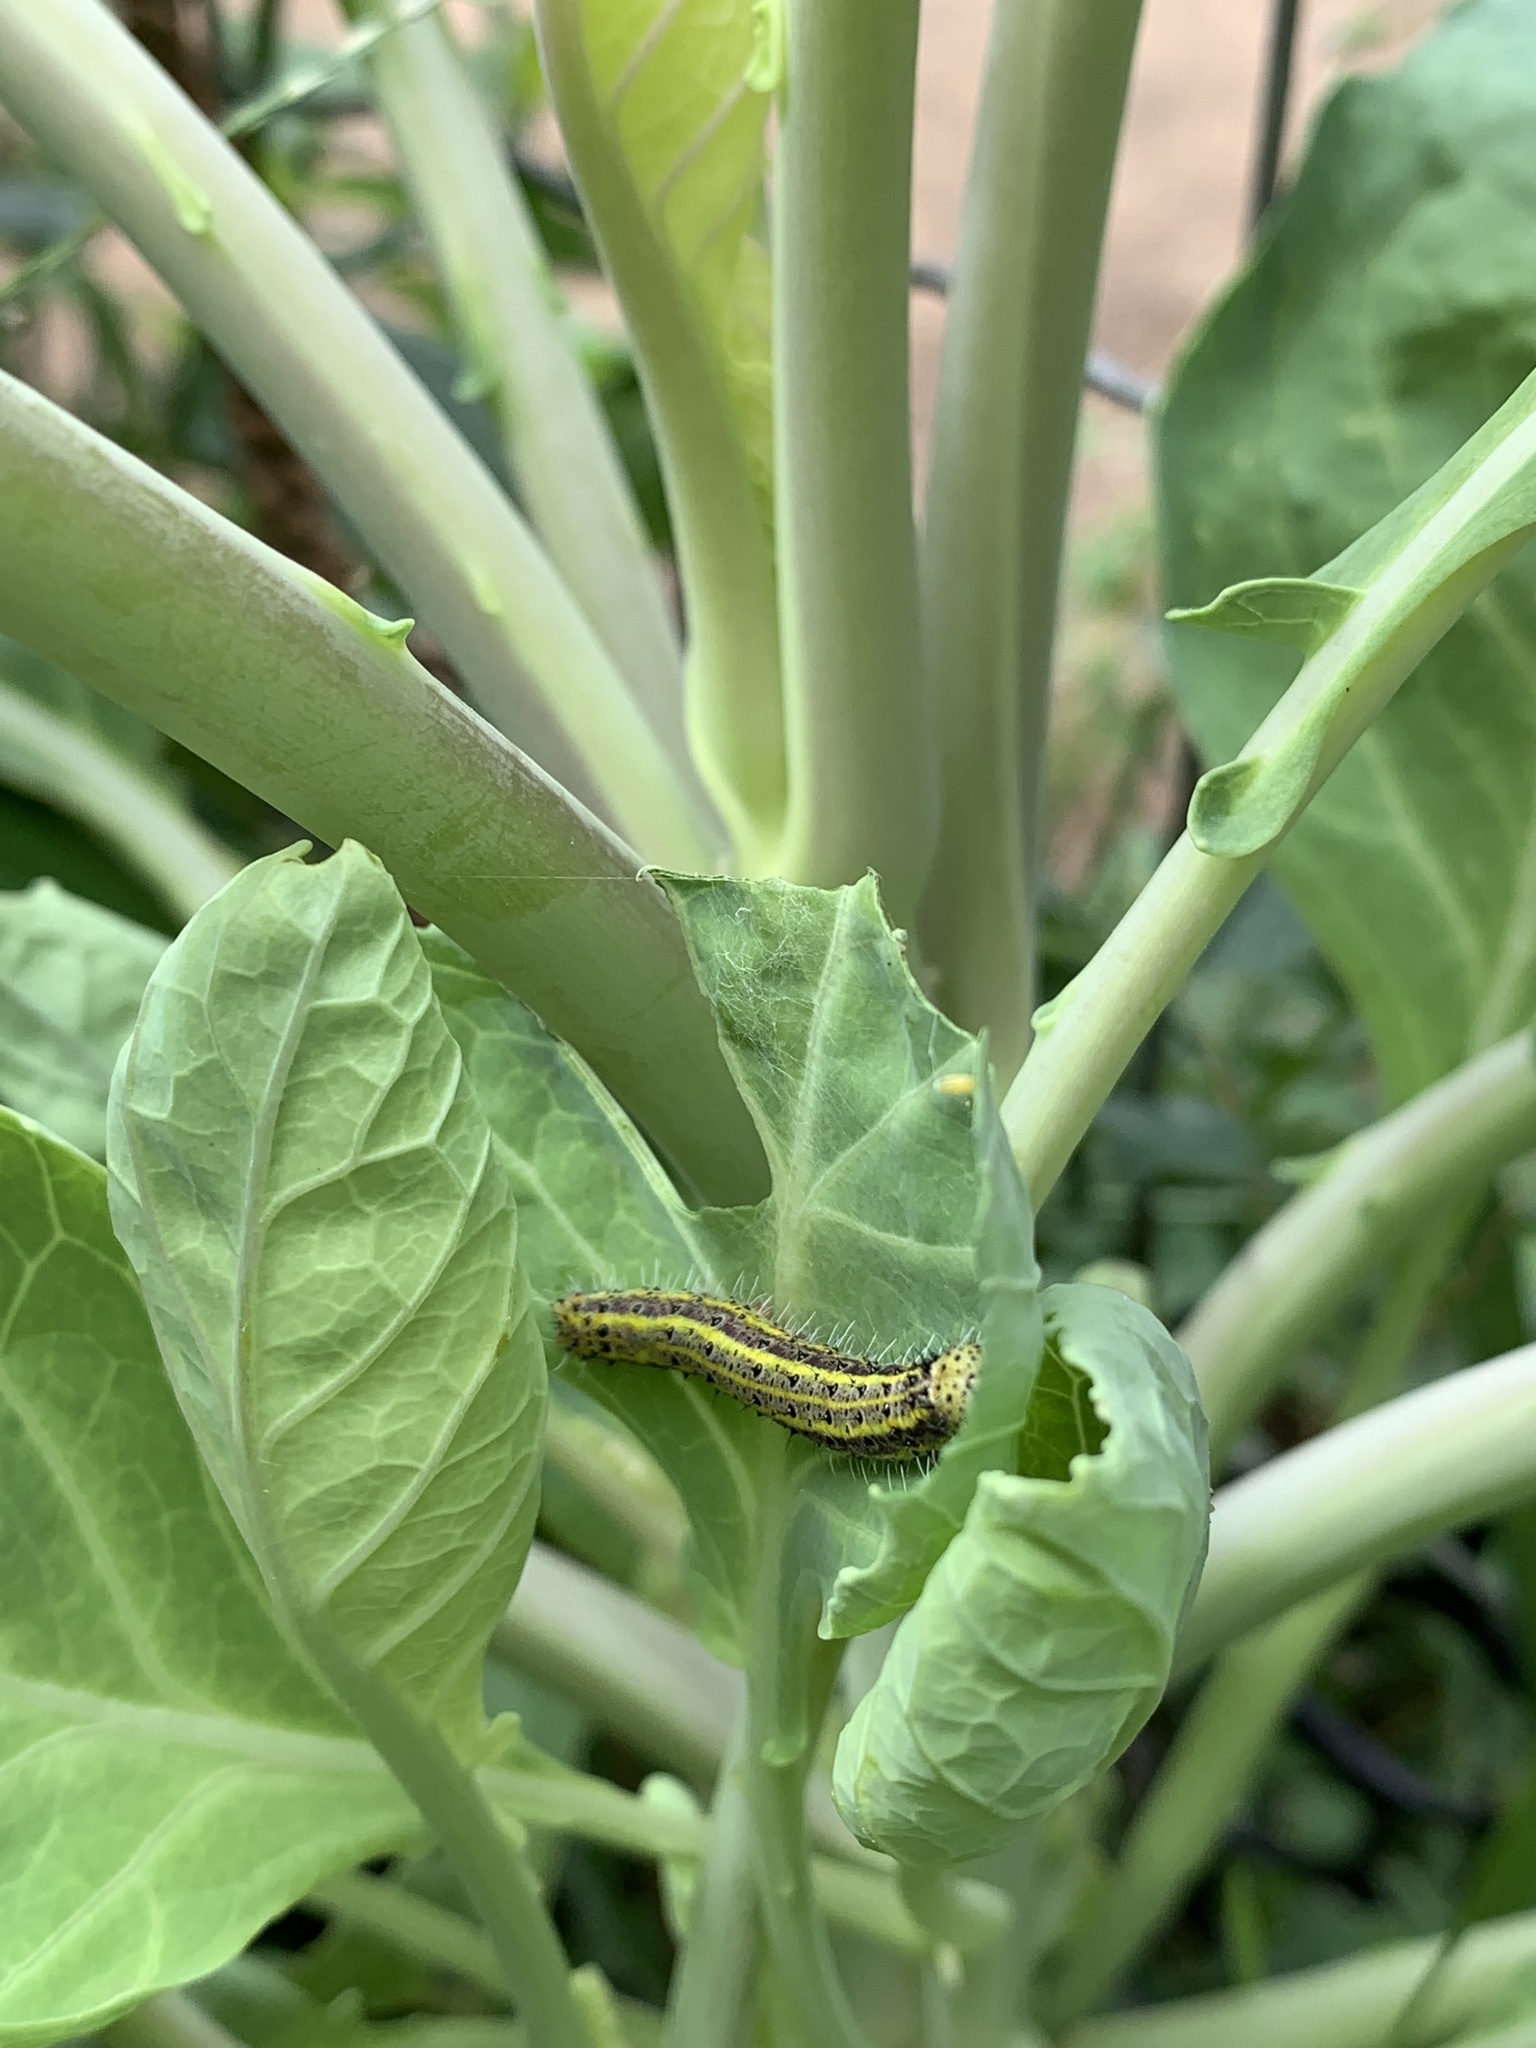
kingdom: Animalia
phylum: Arthropoda
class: Insecta
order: Lepidoptera
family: Pieridae
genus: Ascia
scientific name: Ascia monuste
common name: Great southern white
